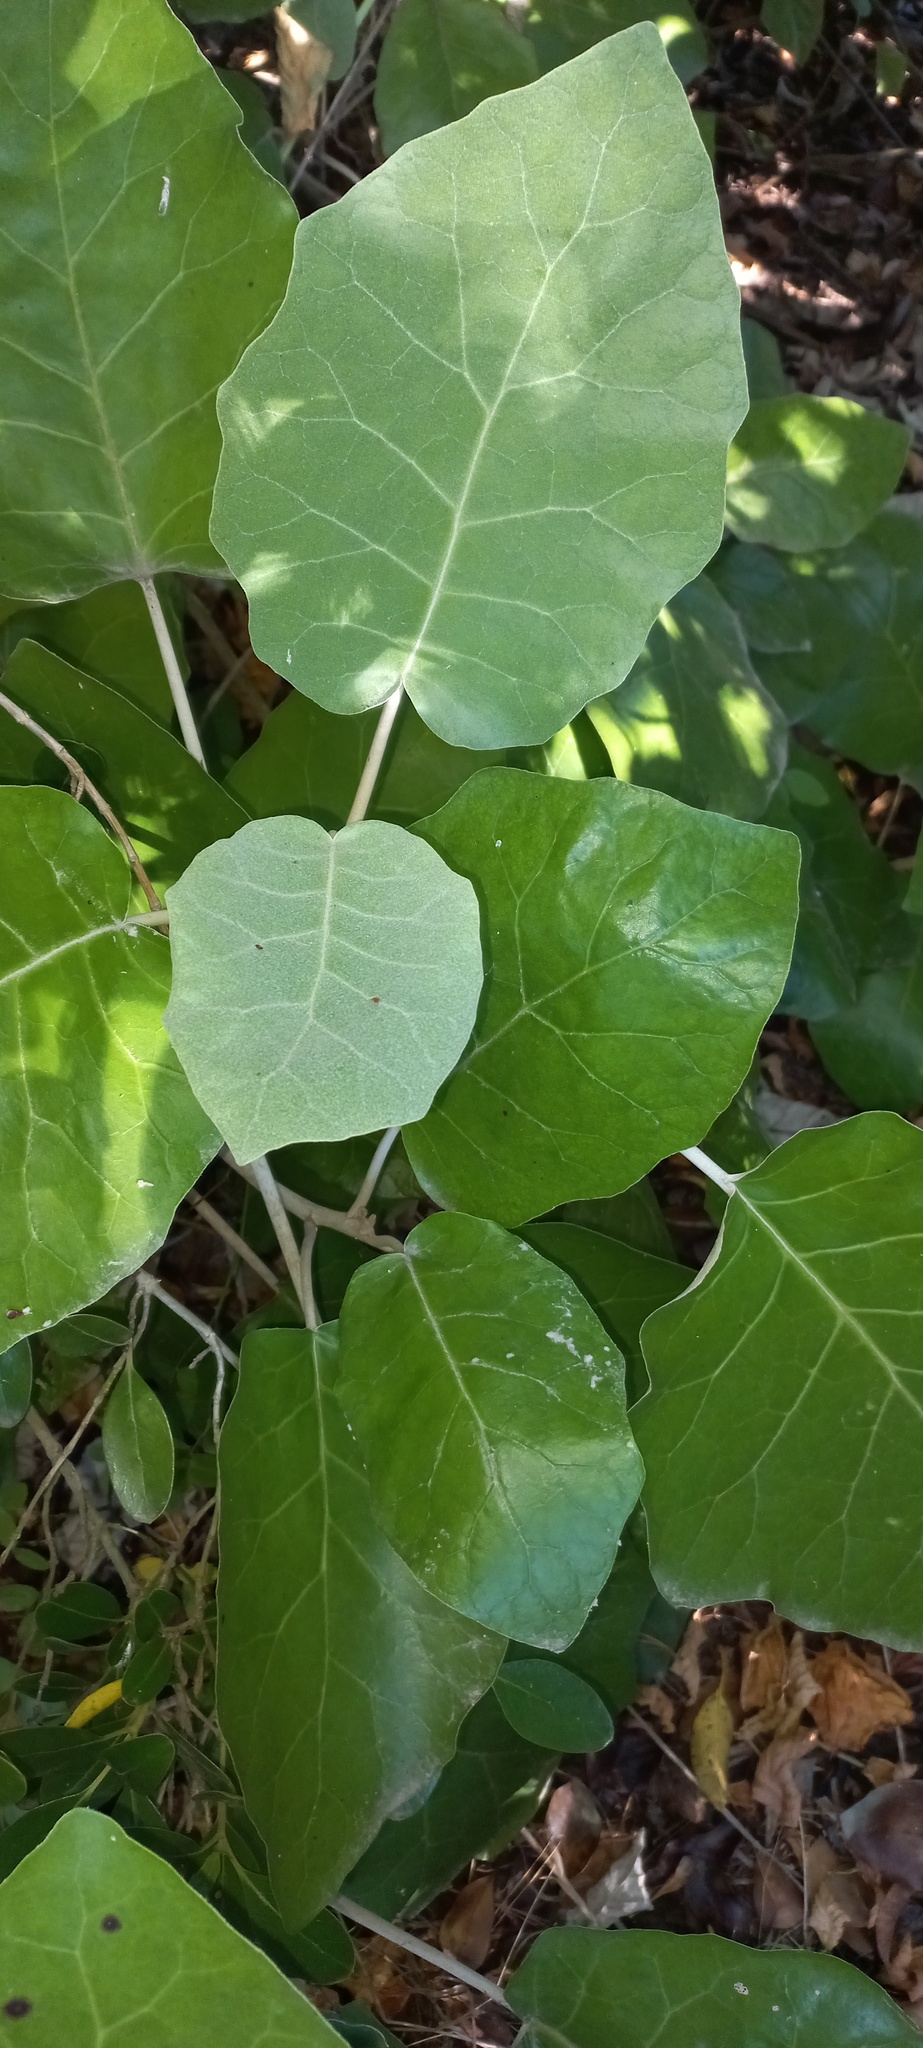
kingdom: Plantae
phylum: Tracheophyta
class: Magnoliopsida
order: Asterales
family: Asteraceae
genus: Brachyglottis
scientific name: Brachyglottis repanda
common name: Hedge ragwort
